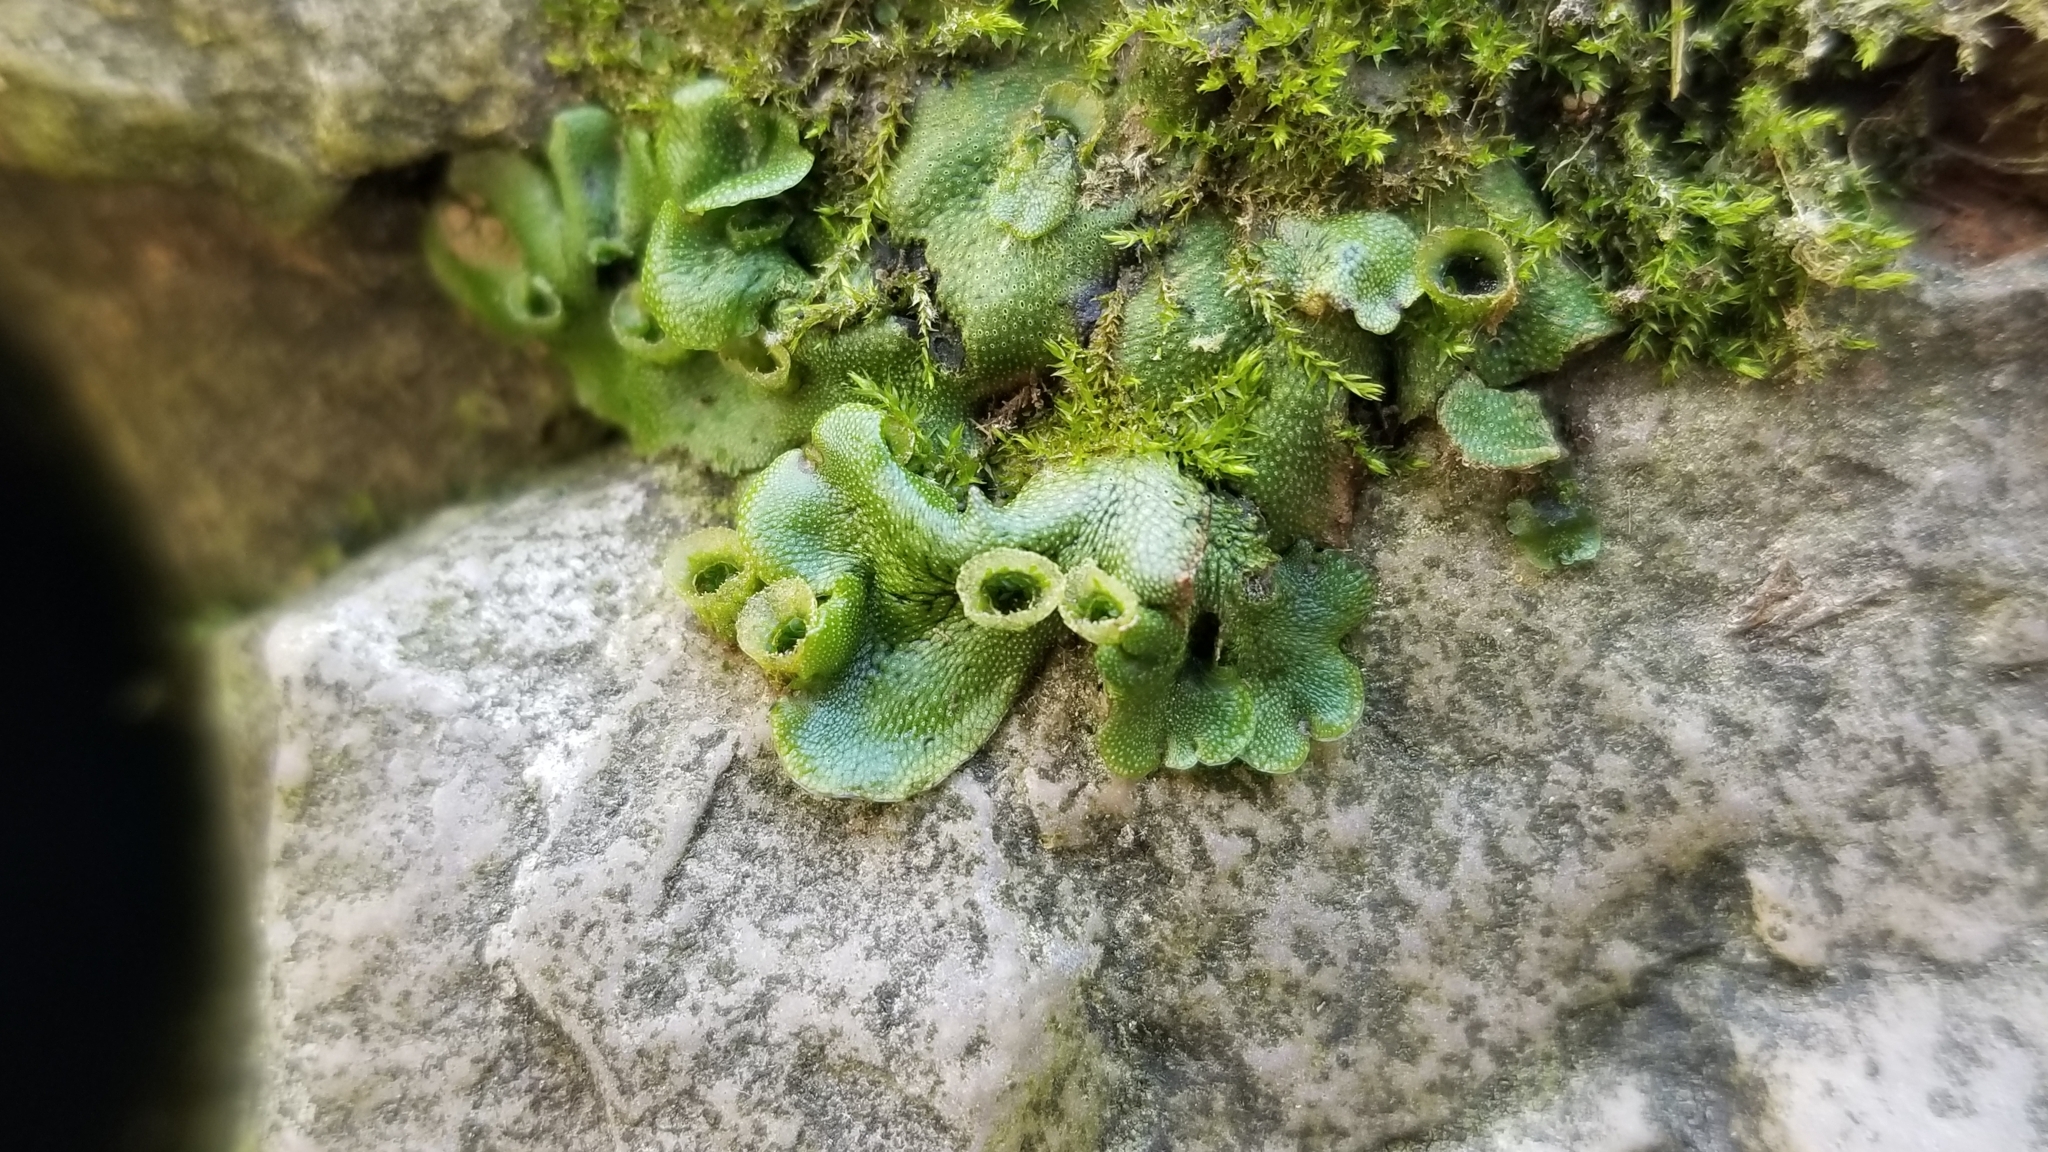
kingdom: Plantae
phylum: Marchantiophyta
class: Marchantiopsida
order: Marchantiales
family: Marchantiaceae
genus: Marchantia
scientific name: Marchantia polymorpha
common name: Common liverwort
